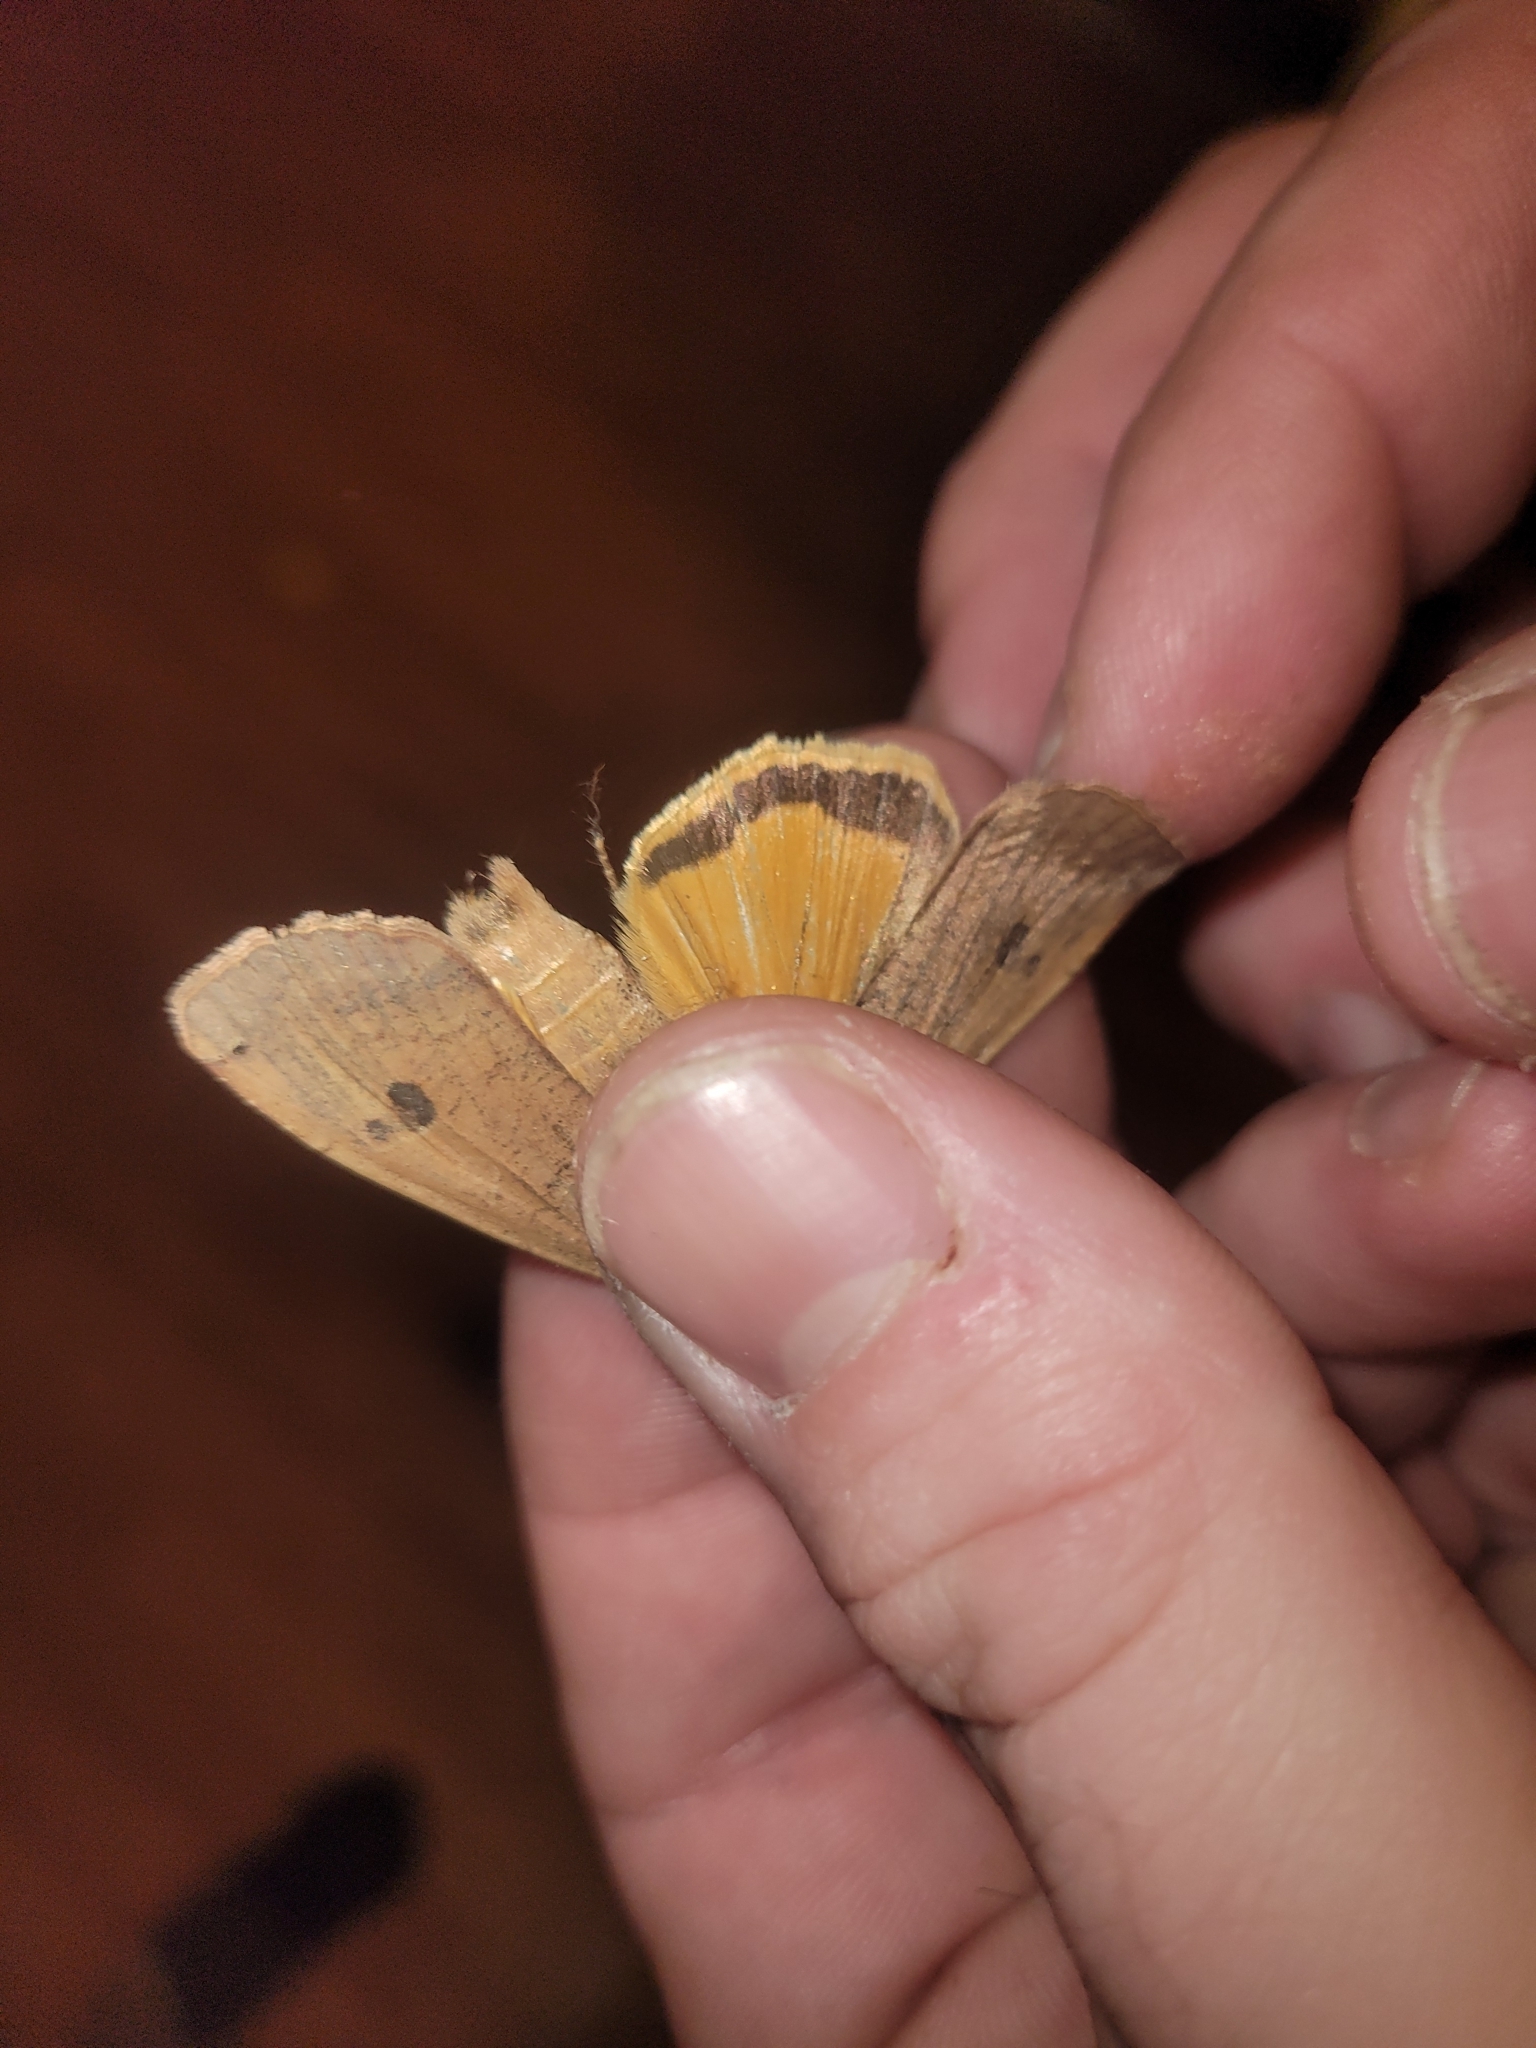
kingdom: Animalia
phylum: Arthropoda
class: Insecta
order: Lepidoptera
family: Noctuidae
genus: Noctua
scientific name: Noctua pronuba
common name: Large yellow underwing
